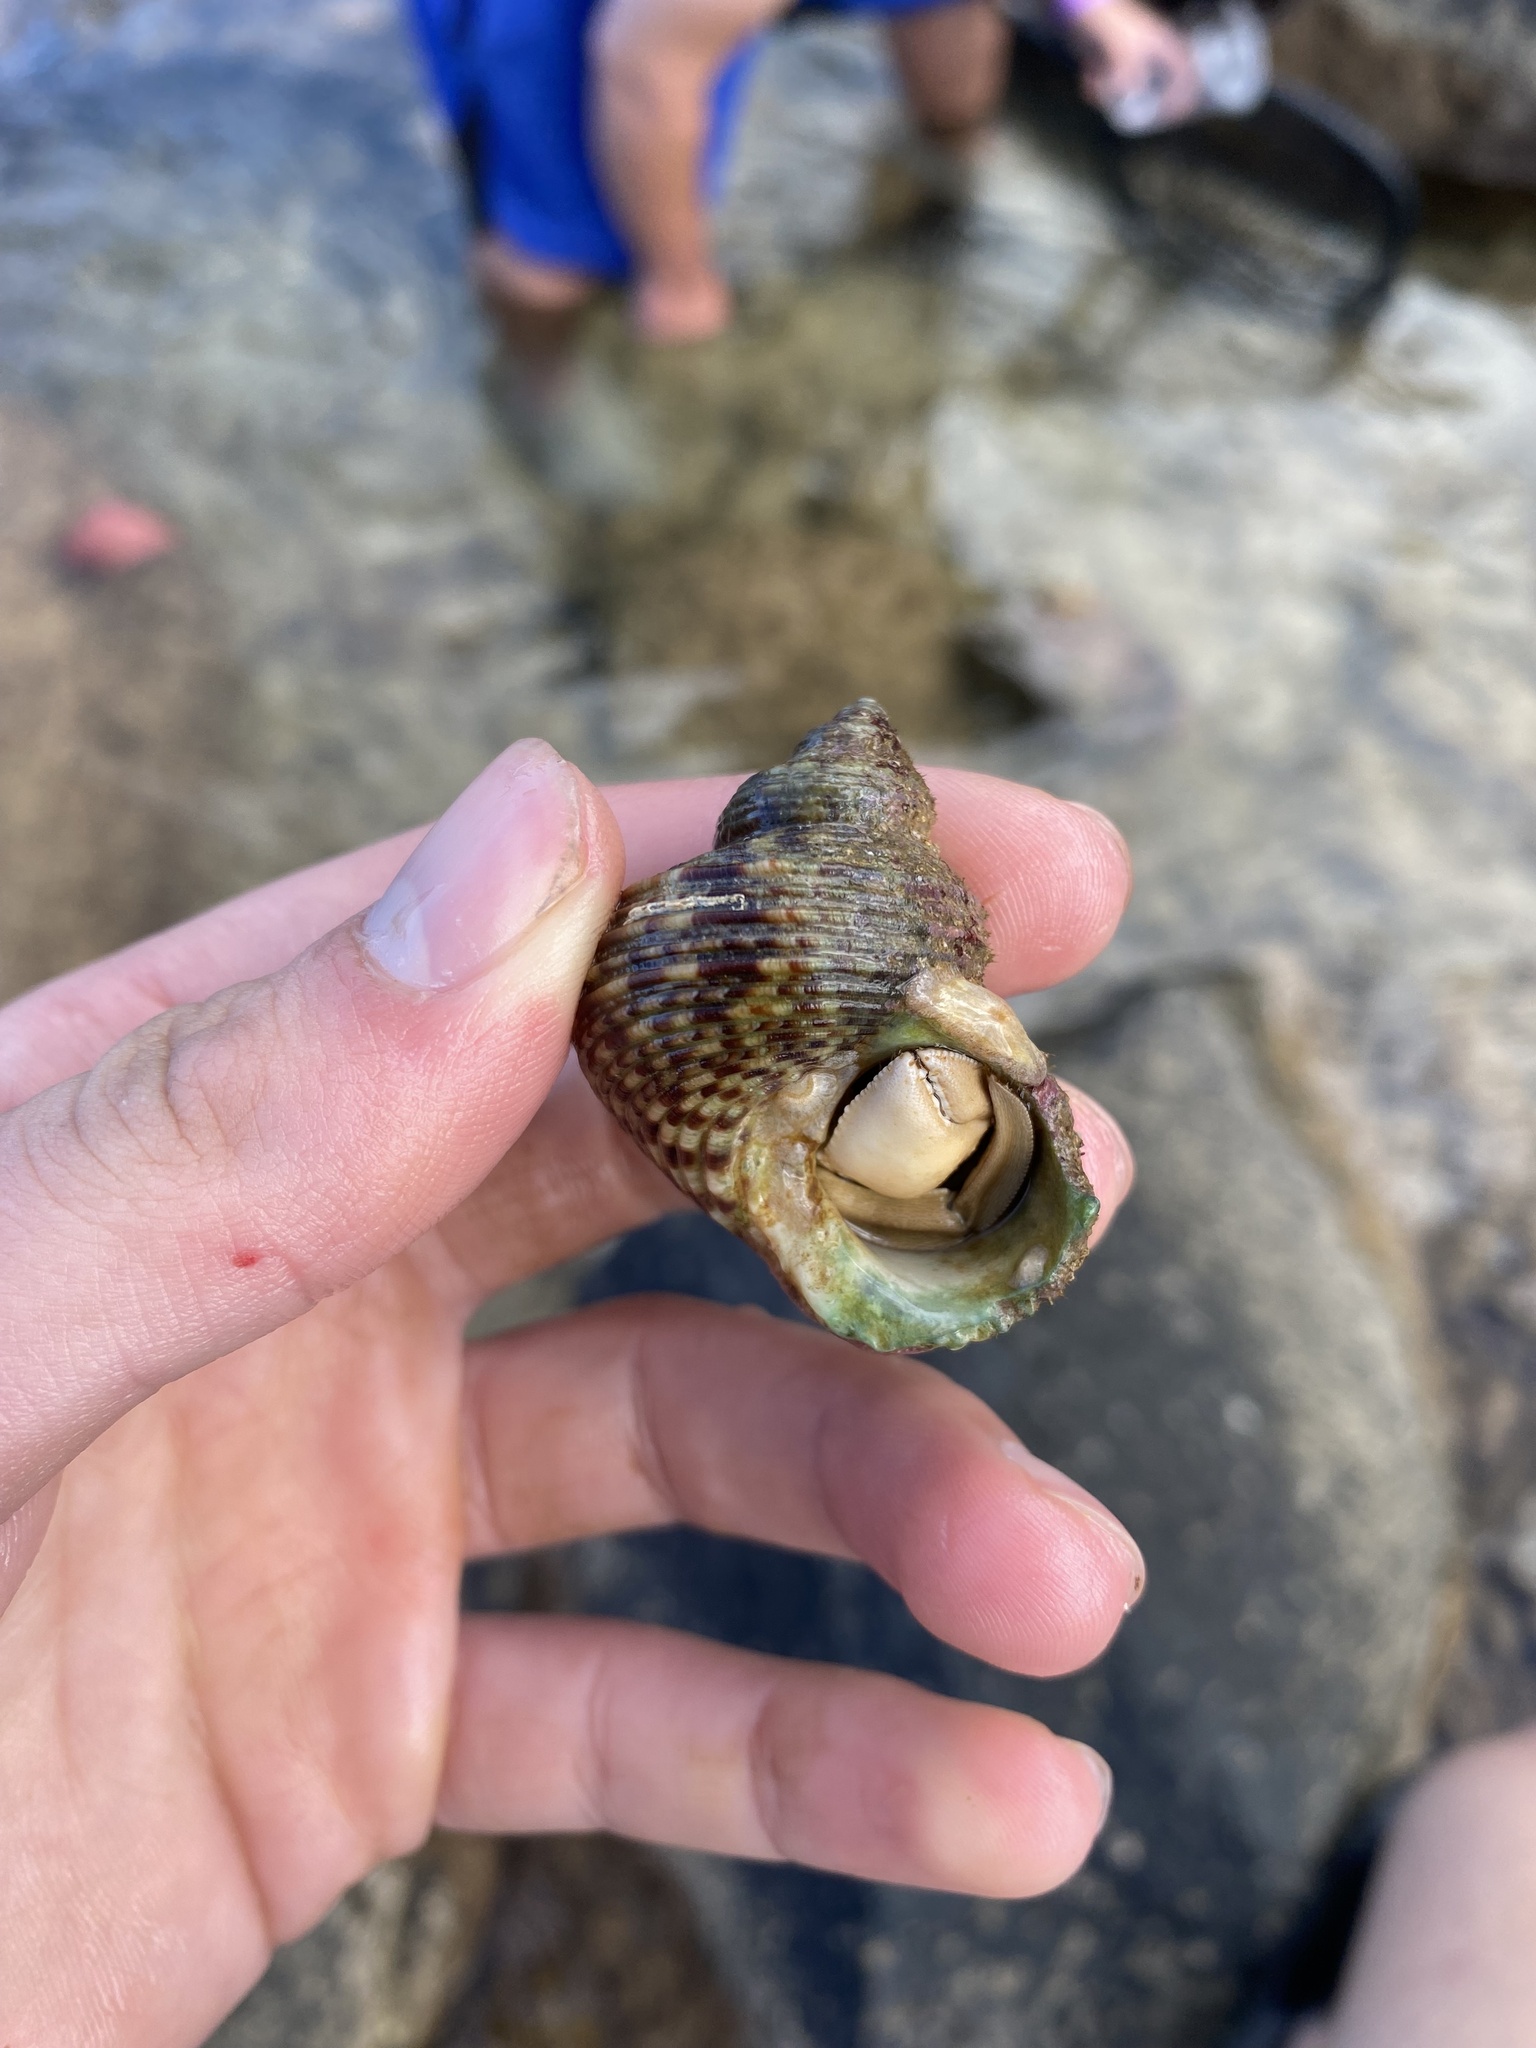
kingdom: Animalia
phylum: Mollusca
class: Gastropoda
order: Trochida
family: Turbinidae
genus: Turbo
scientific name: Turbo sandwicensis
